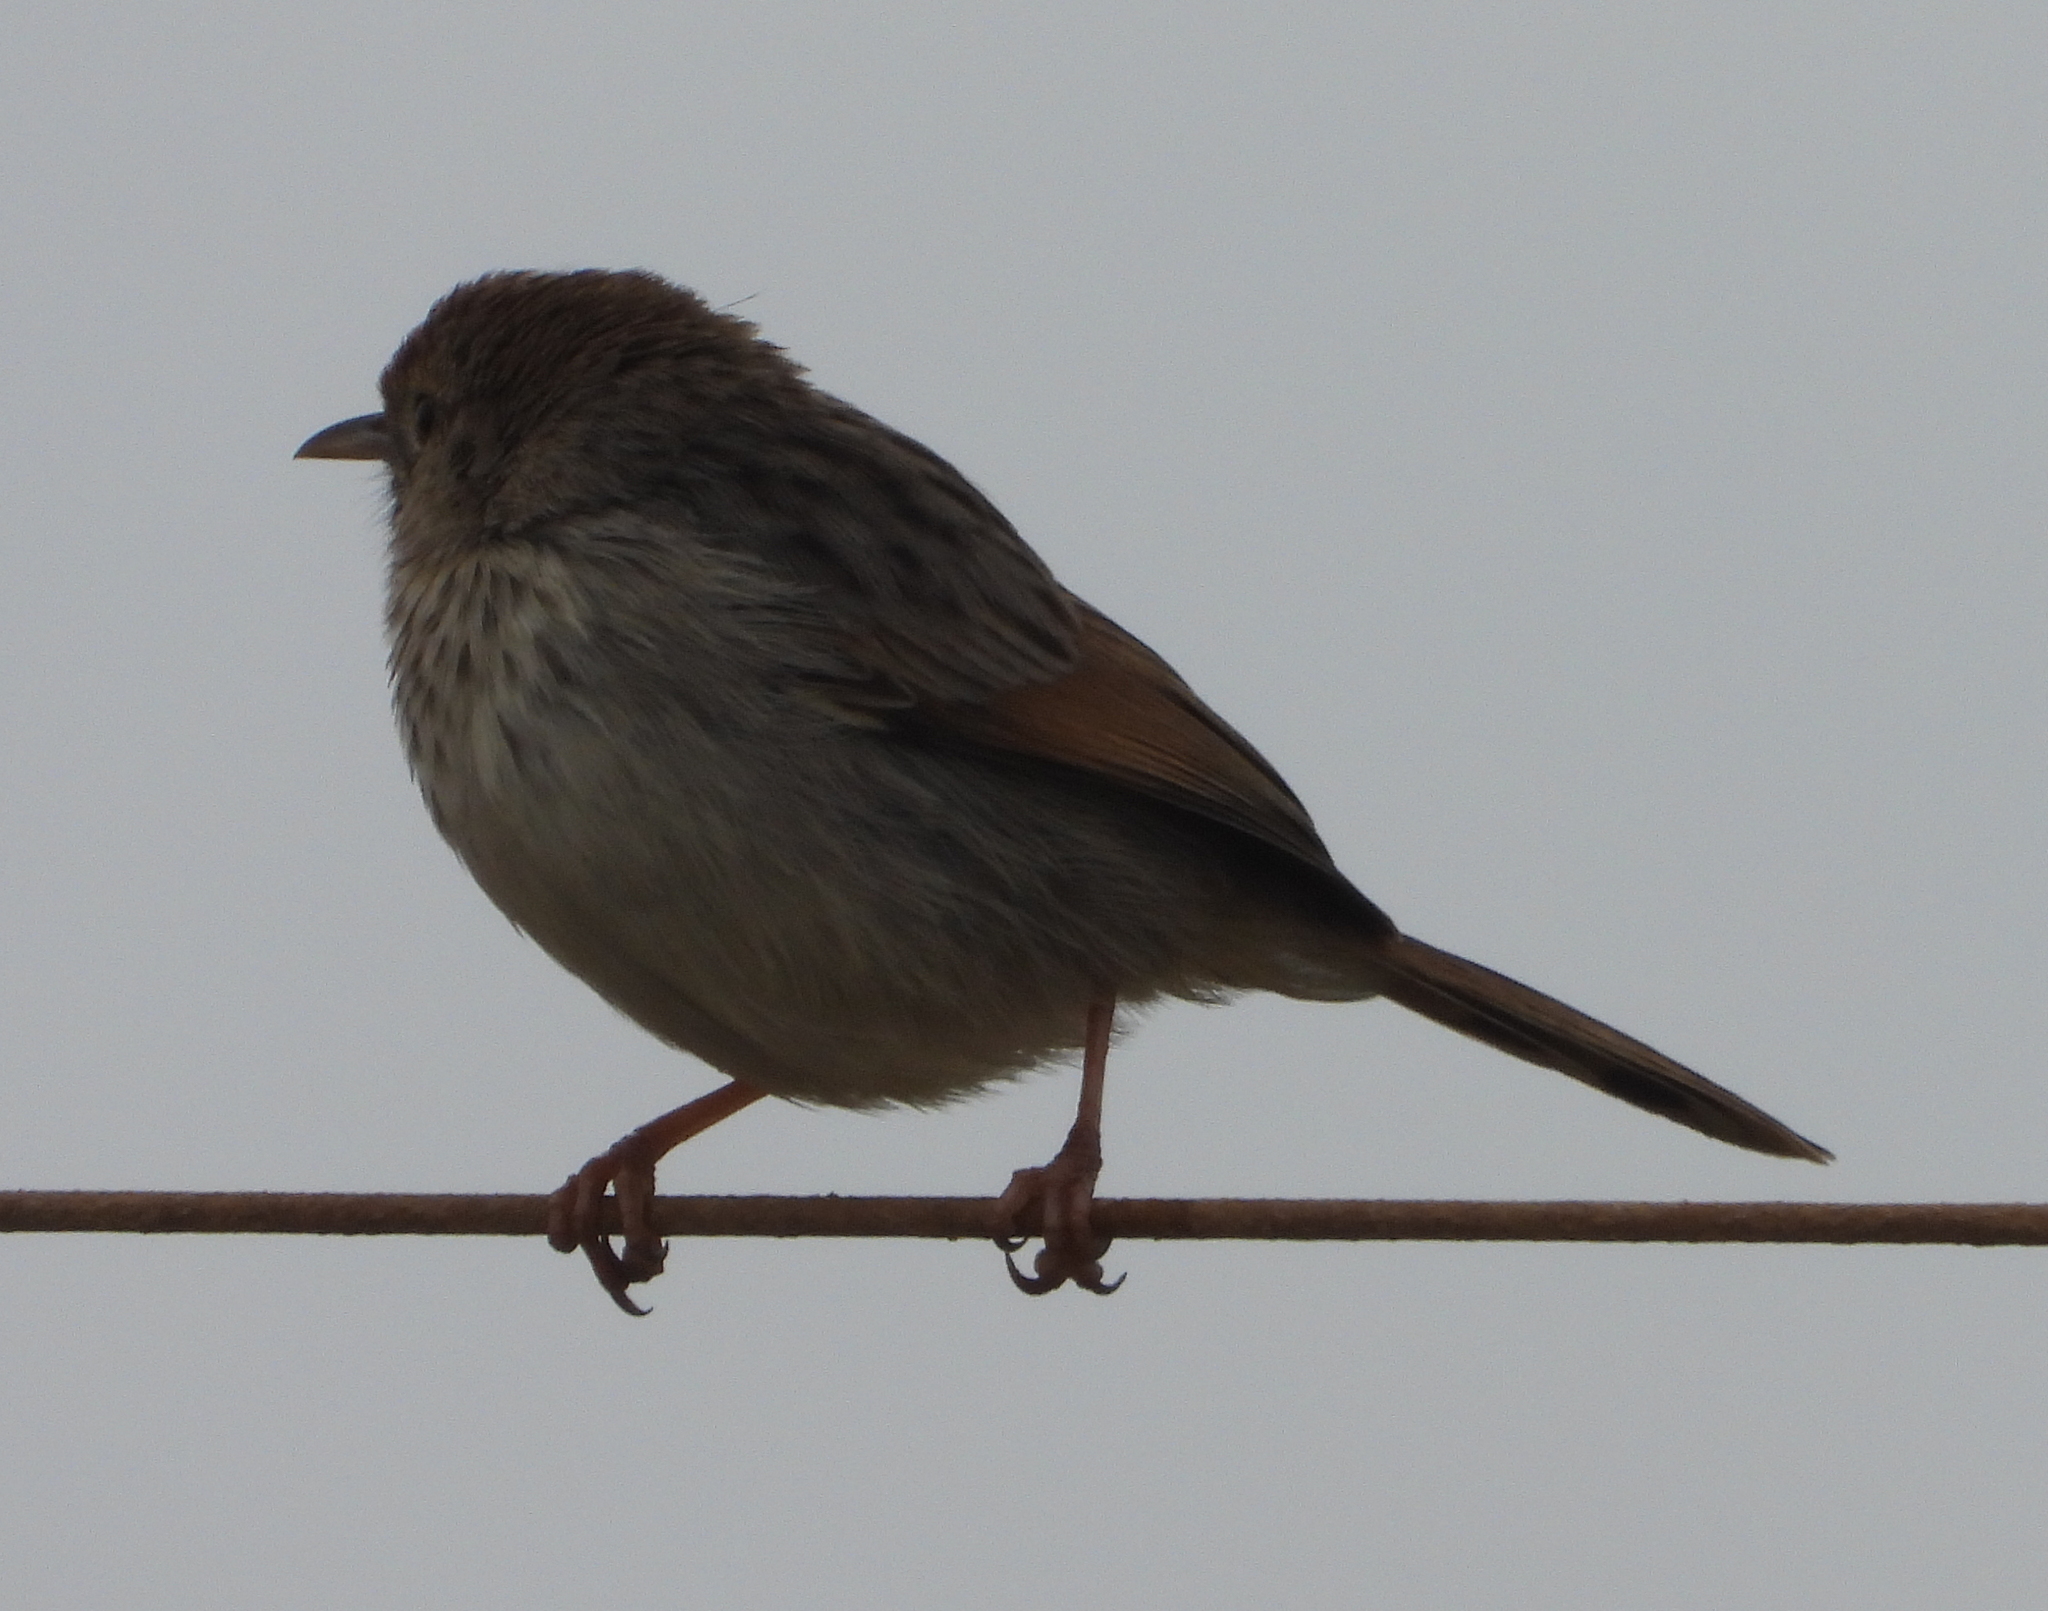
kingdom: Animalia
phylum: Chordata
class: Aves
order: Passeriformes
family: Cisticolidae
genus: Cisticola
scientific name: Cisticola subruficapilla
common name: Grey-backed cisticola
